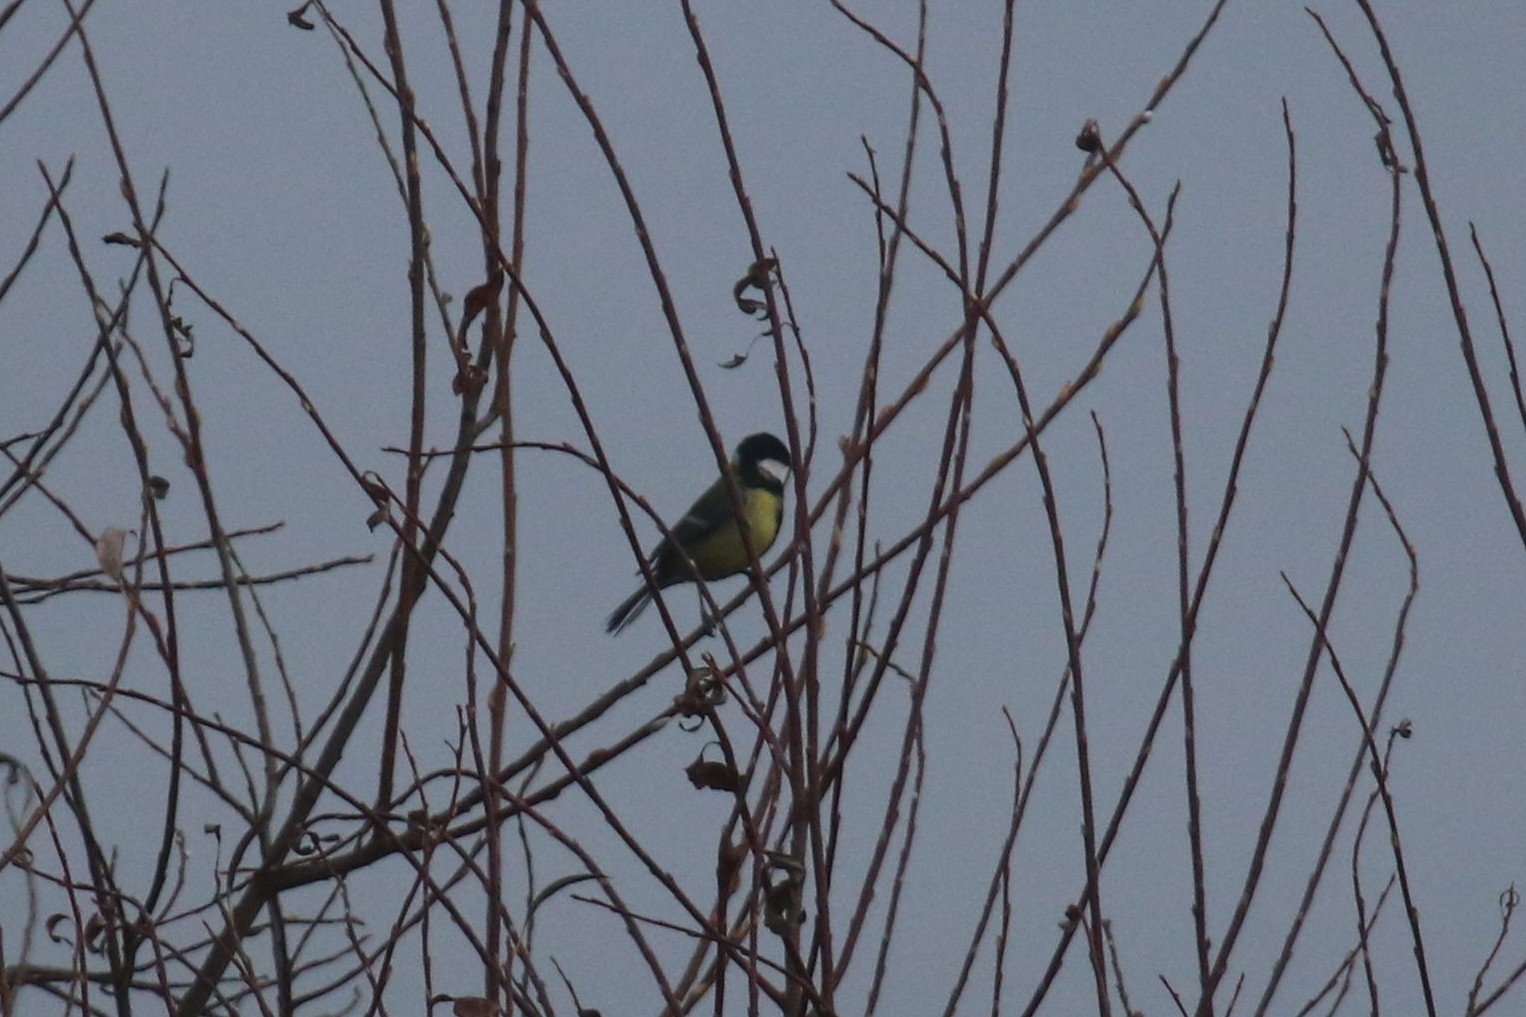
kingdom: Animalia
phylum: Chordata
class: Aves
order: Passeriformes
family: Paridae
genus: Parus
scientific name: Parus major
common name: Great tit
